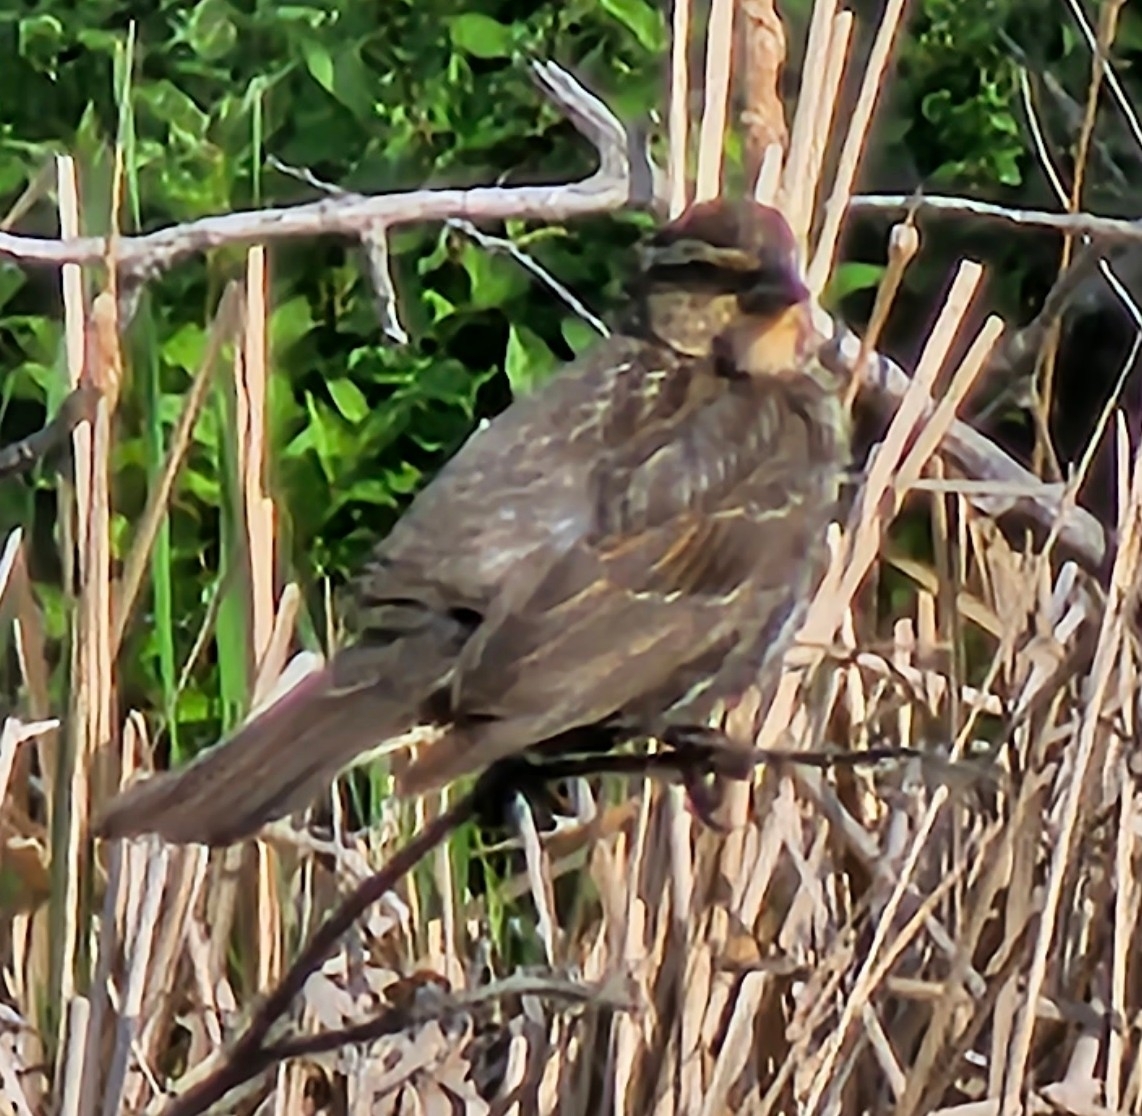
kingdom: Animalia
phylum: Chordata
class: Aves
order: Passeriformes
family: Icteridae
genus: Agelaius
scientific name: Agelaius phoeniceus
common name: Red-winged blackbird
